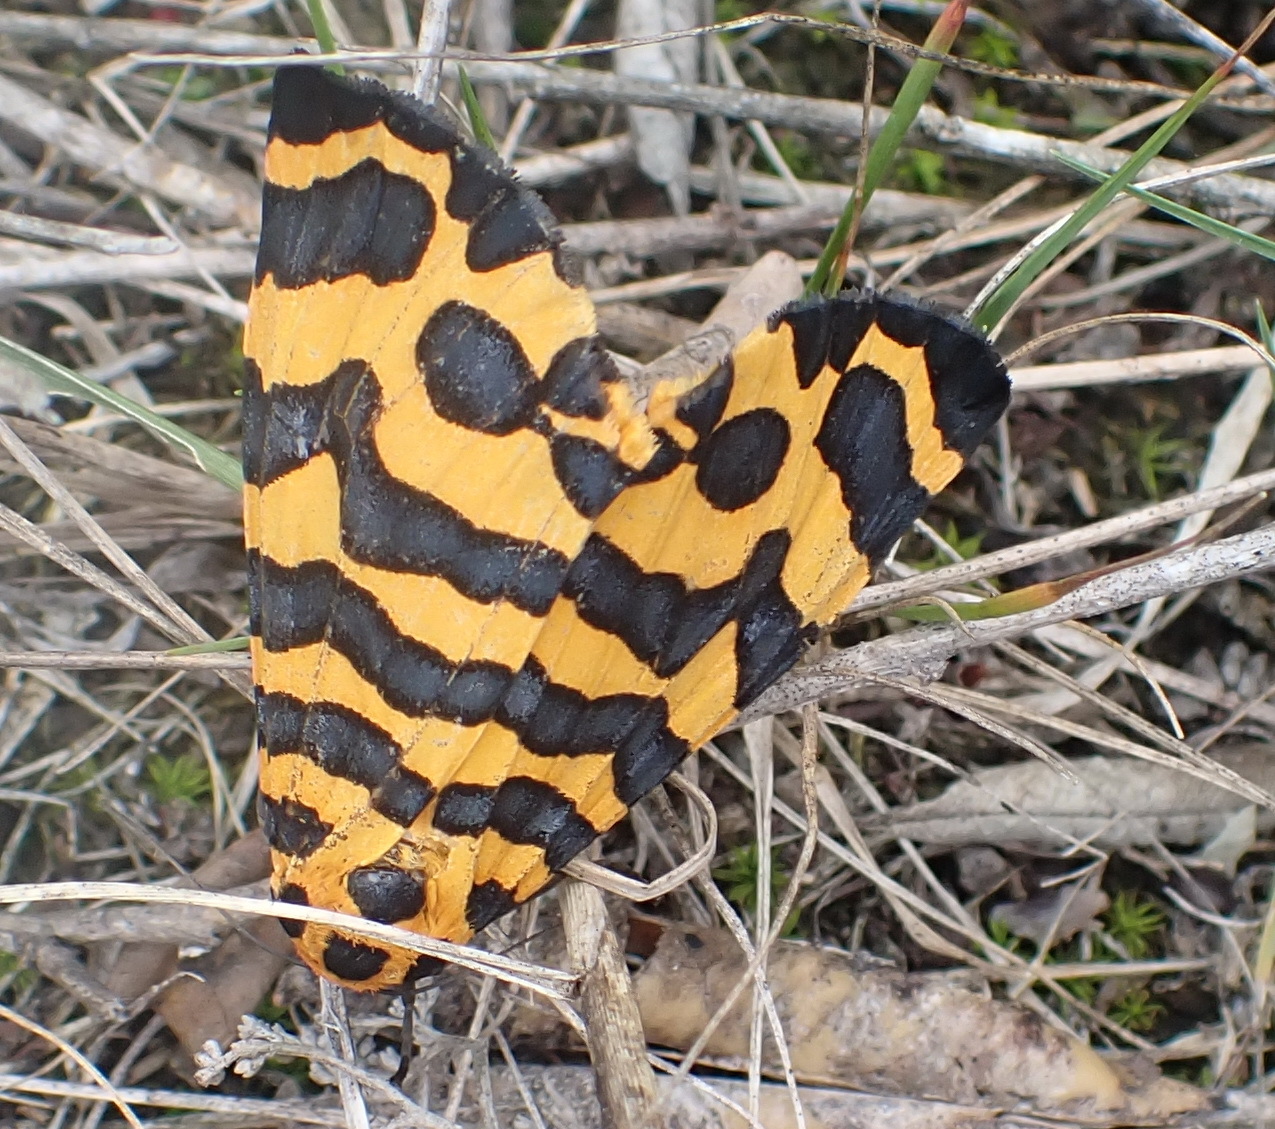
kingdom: Animalia
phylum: Arthropoda
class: Insecta
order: Lepidoptera
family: Erebidae
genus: Amphicallia
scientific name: Amphicallia bellatrix
